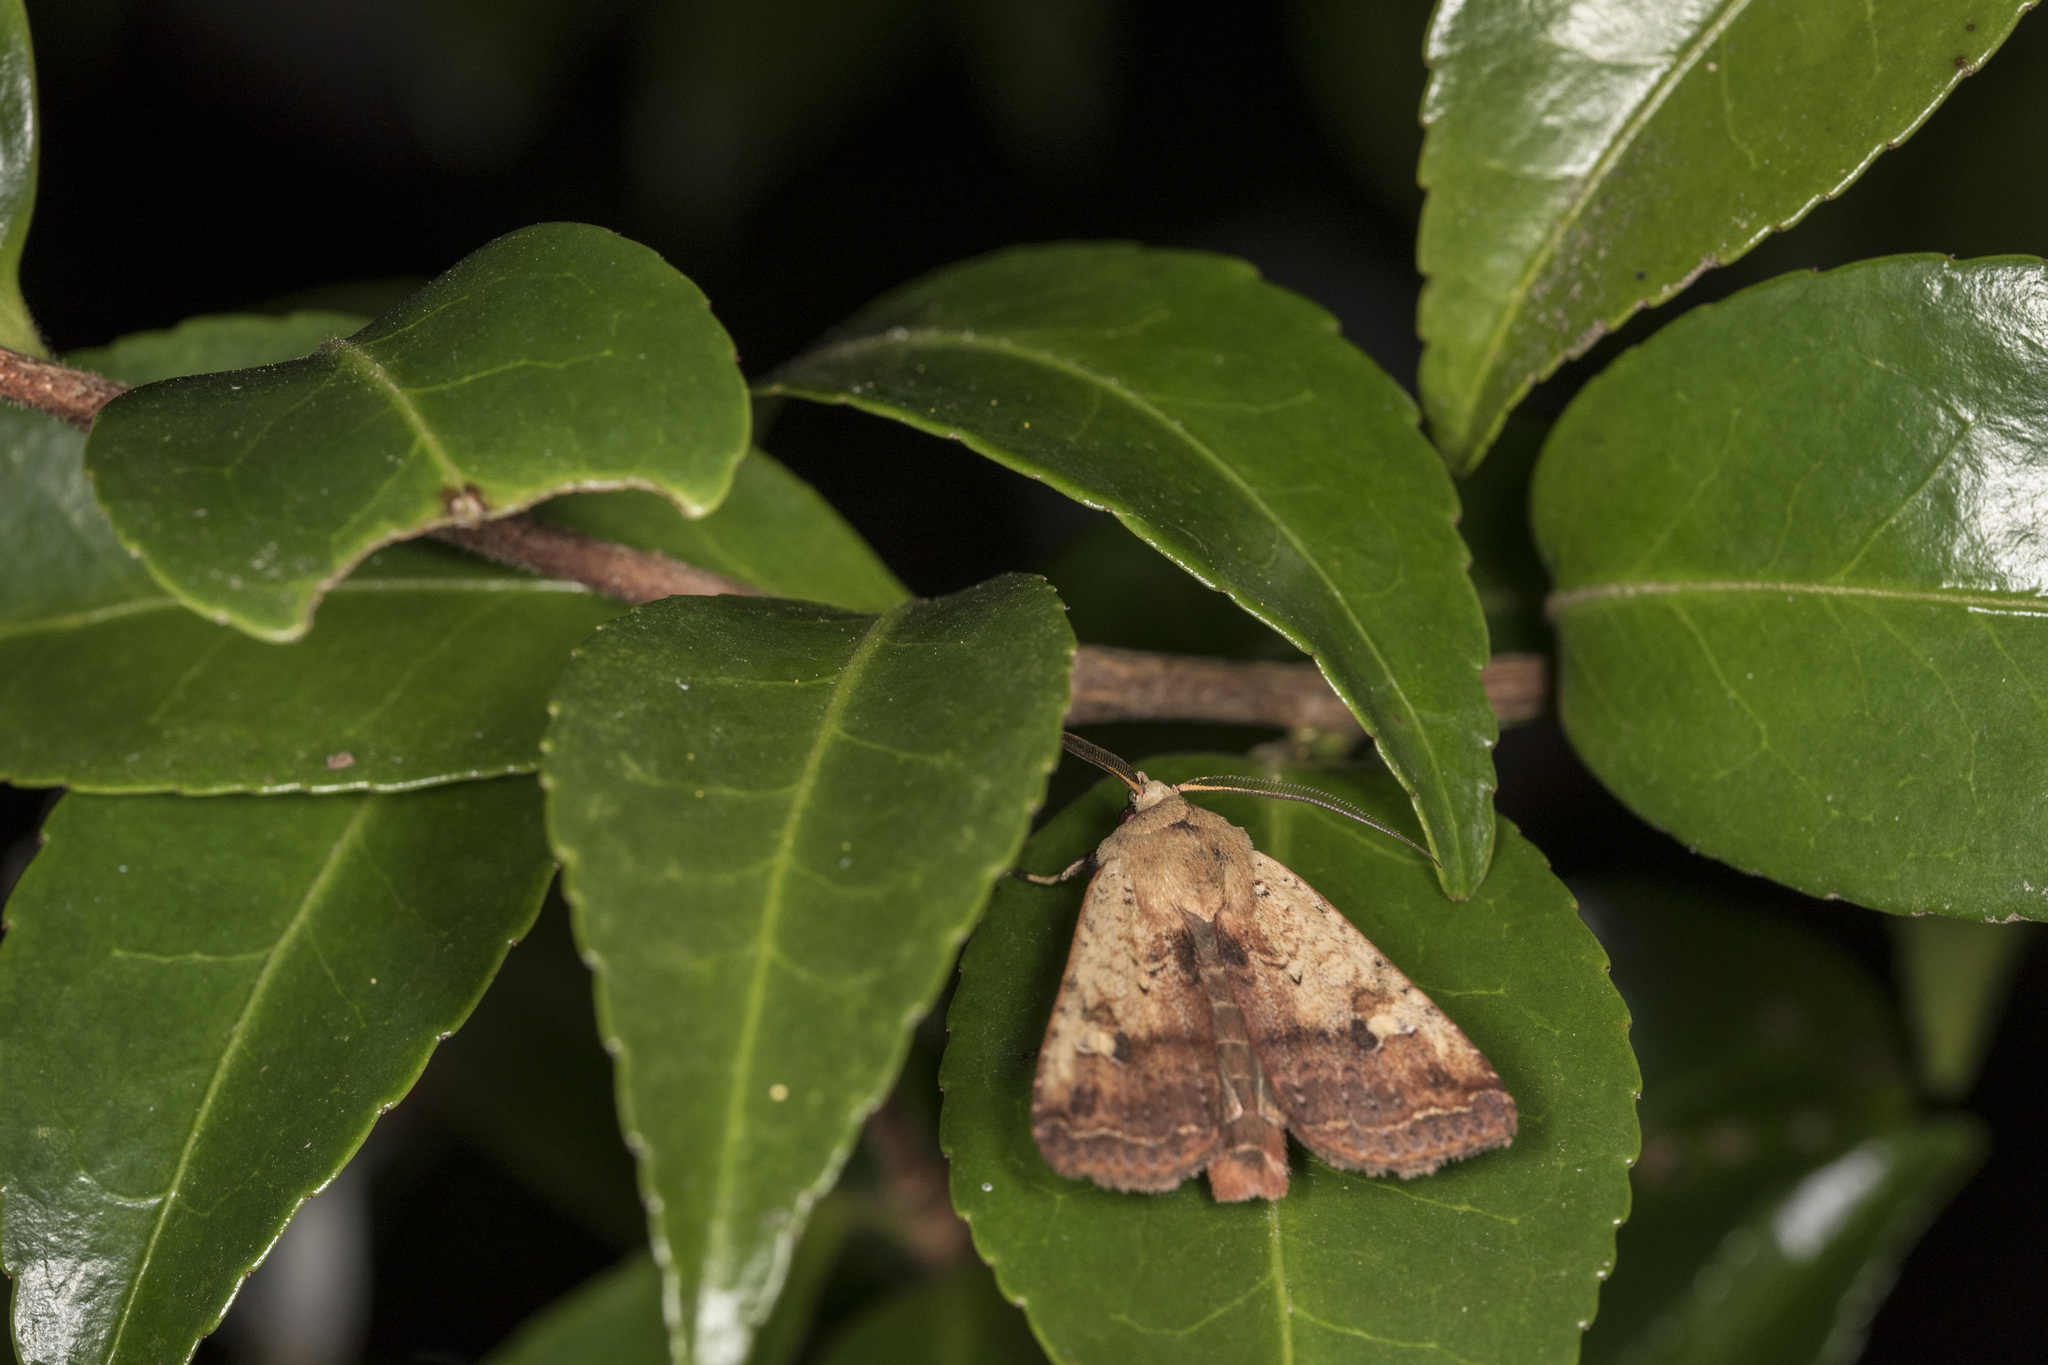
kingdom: Animalia
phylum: Arthropoda
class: Insecta
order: Lepidoptera
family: Noctuidae
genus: Diarsia
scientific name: Diarsia deparca
